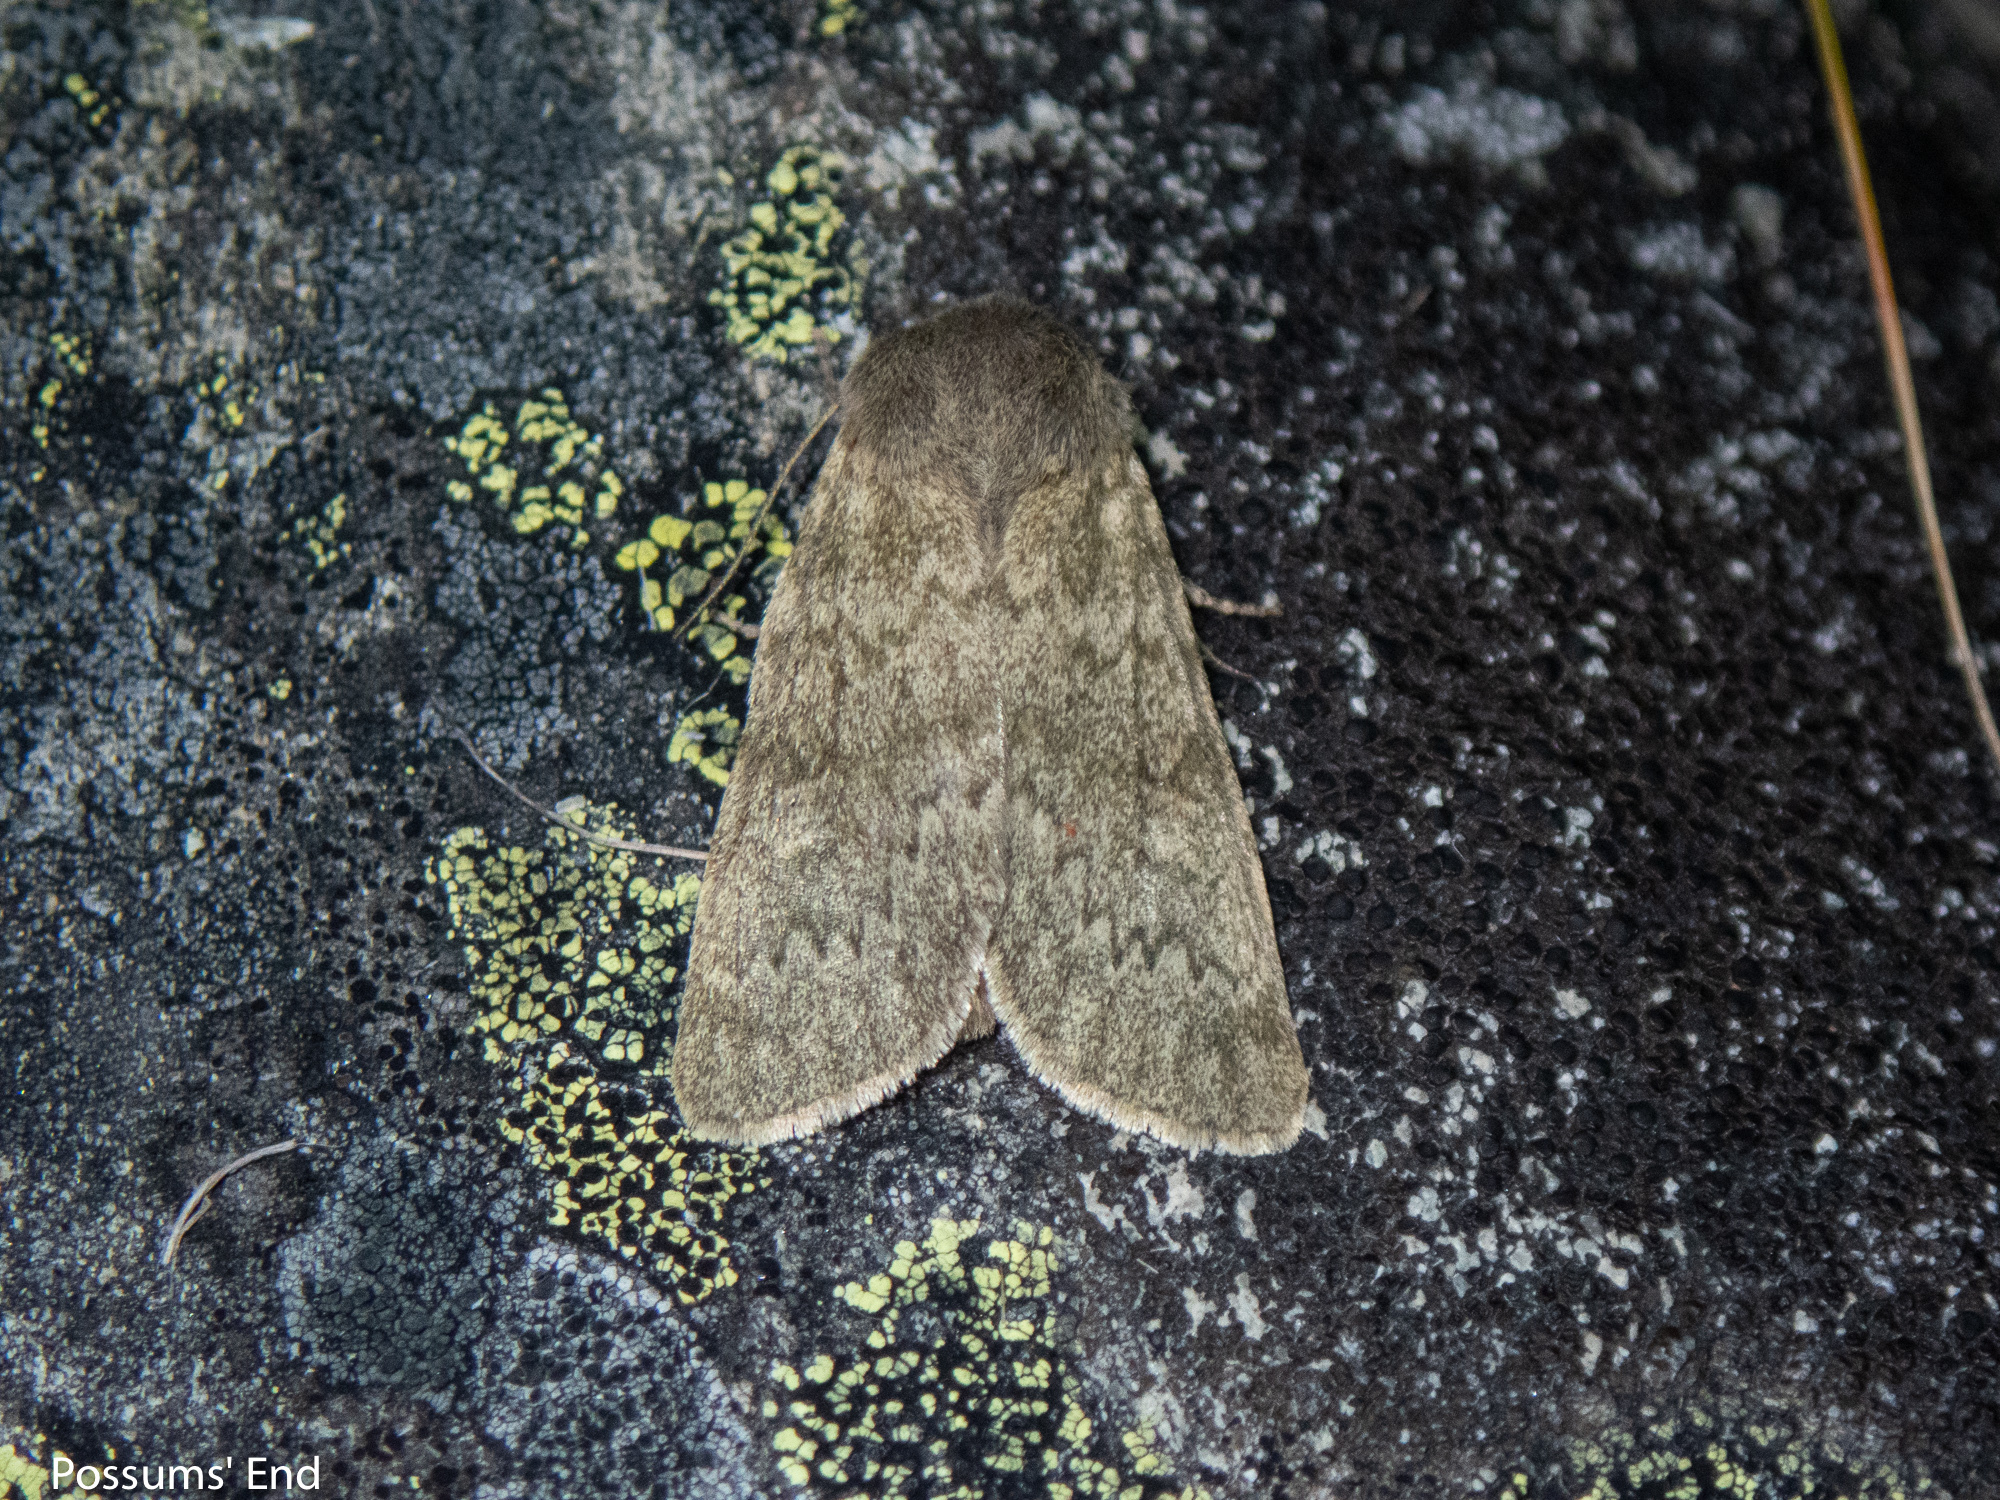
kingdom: Animalia
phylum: Arthropoda
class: Insecta
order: Lepidoptera
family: Noctuidae
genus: Ichneutica
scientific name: Ichneutica moderata
